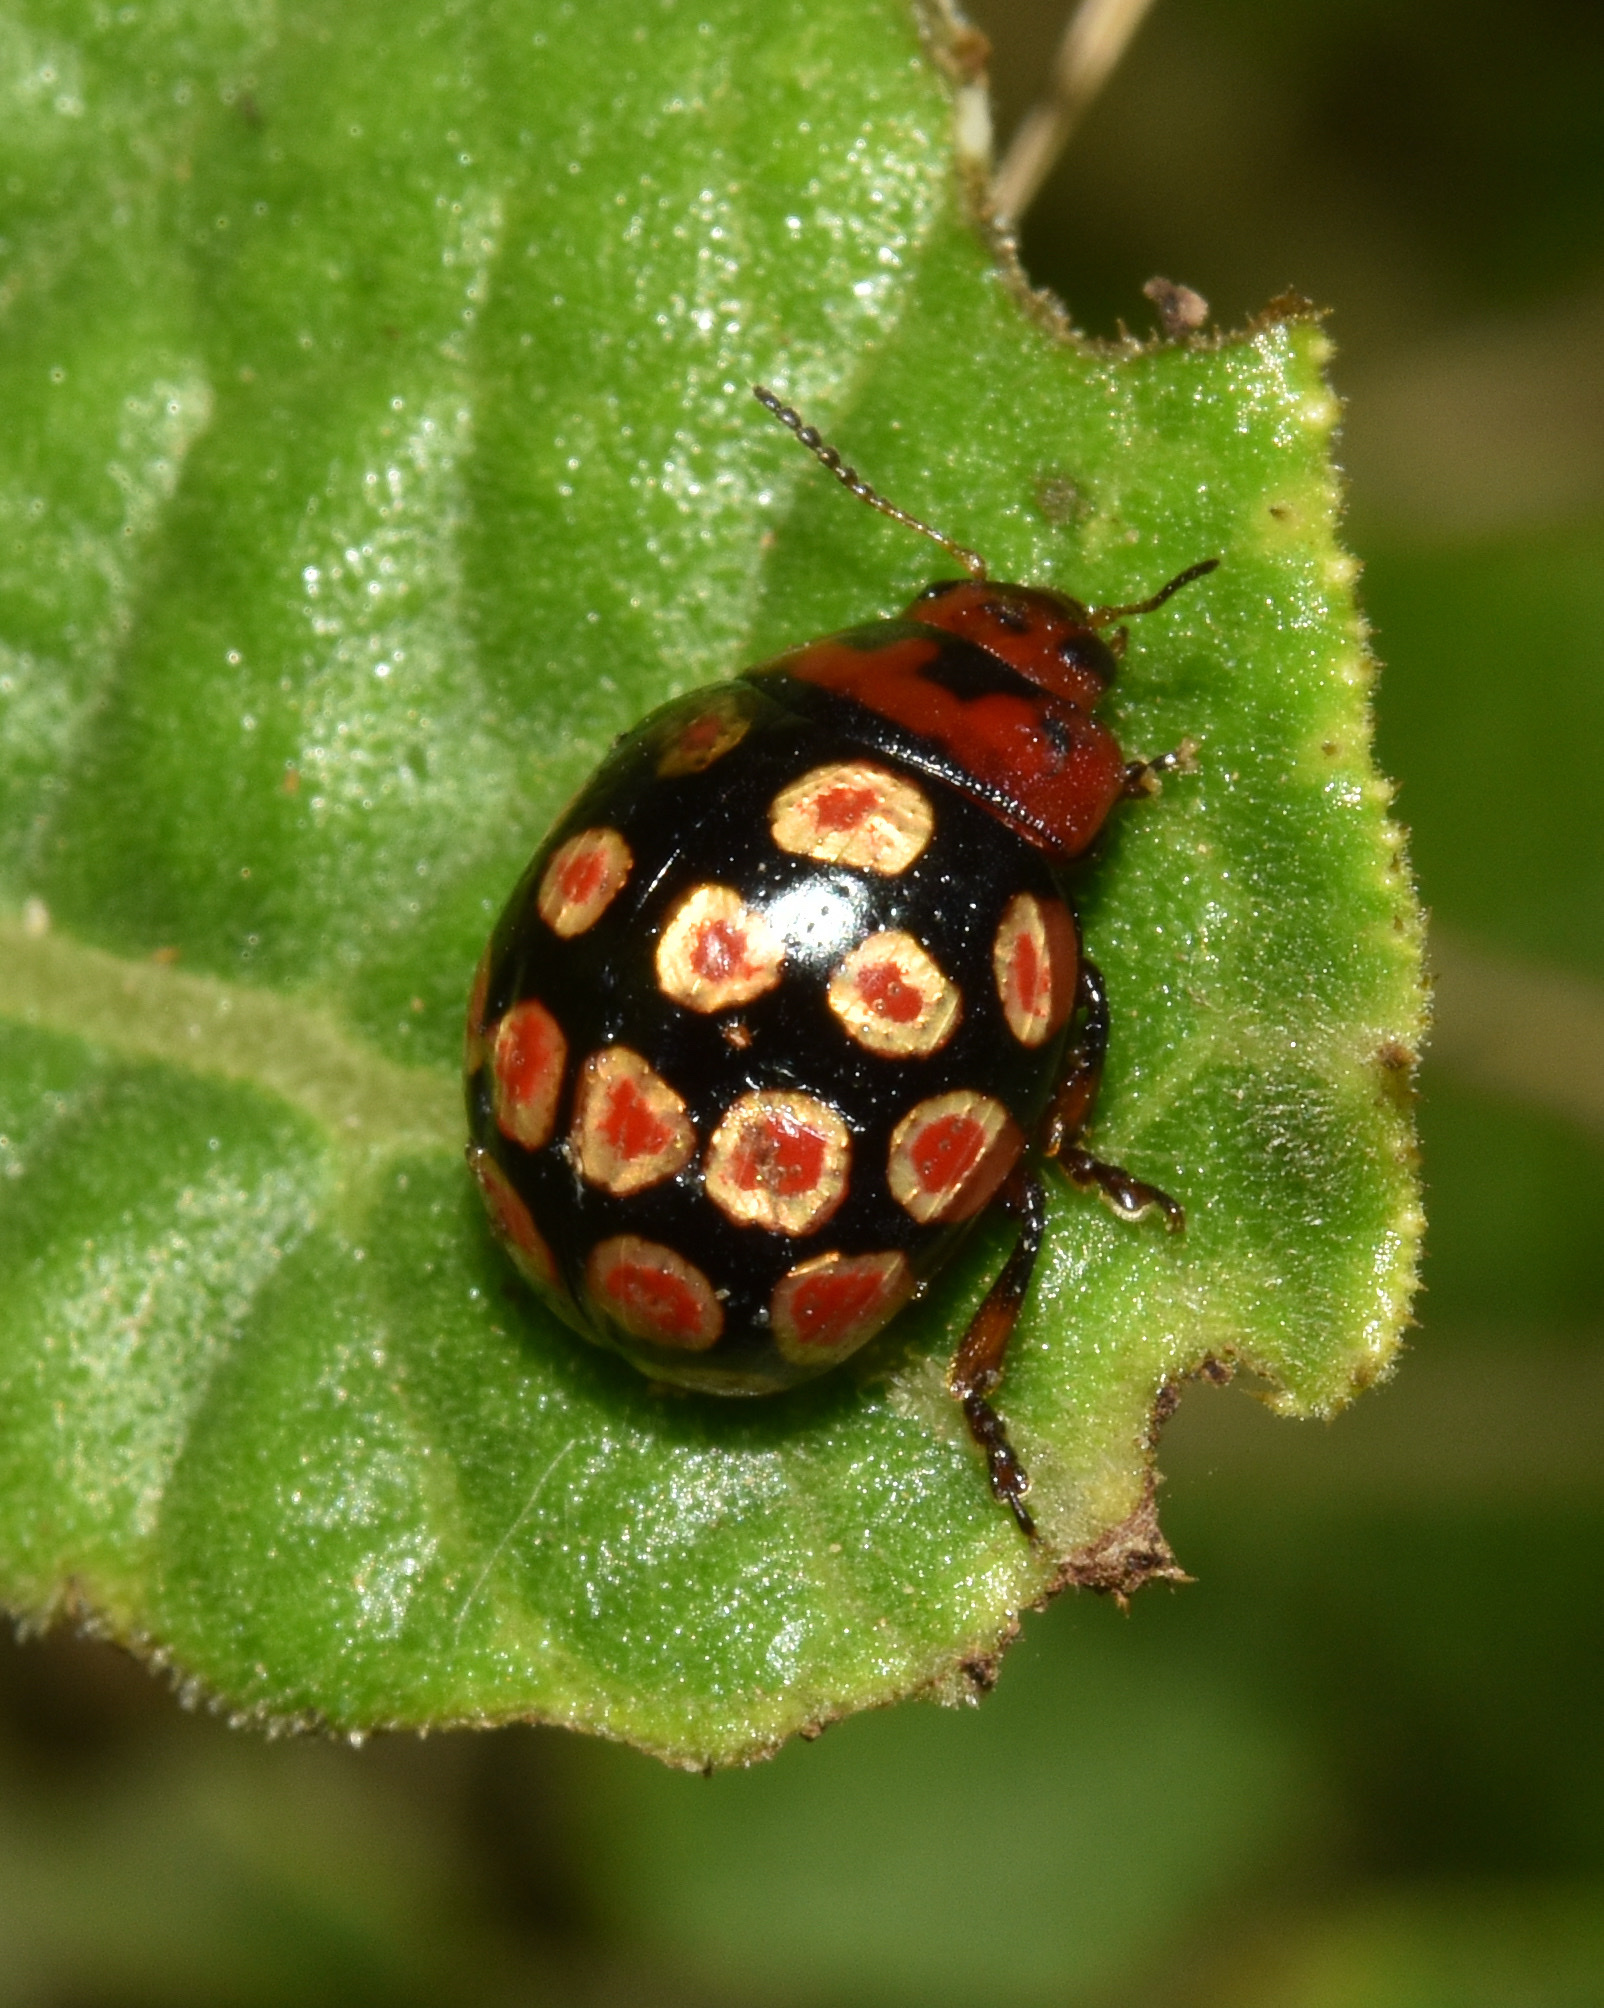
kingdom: Animalia
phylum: Arthropoda
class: Insecta
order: Coleoptera
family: Chrysomelidae
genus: Chrysolina
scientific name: Chrysolina
